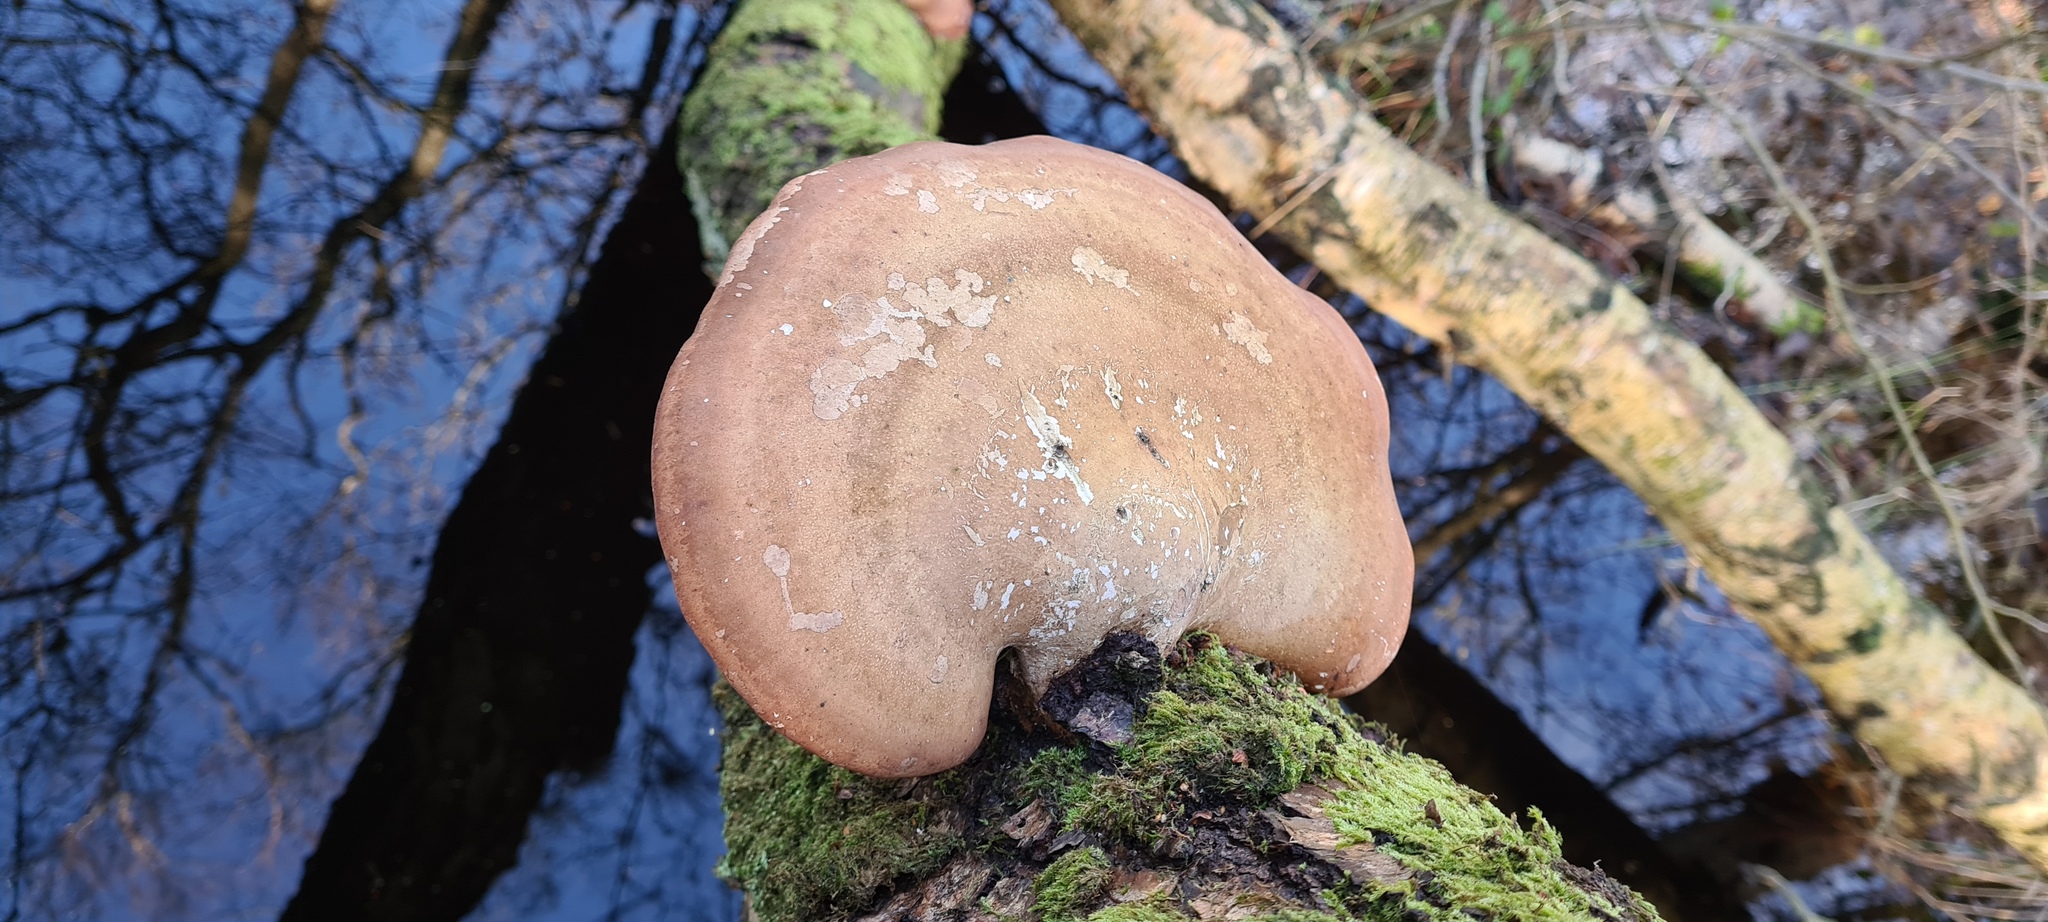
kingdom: Fungi
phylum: Basidiomycota
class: Agaricomycetes
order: Polyporales
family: Fomitopsidaceae
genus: Fomitopsis
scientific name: Fomitopsis betulina
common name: Birch polypore
